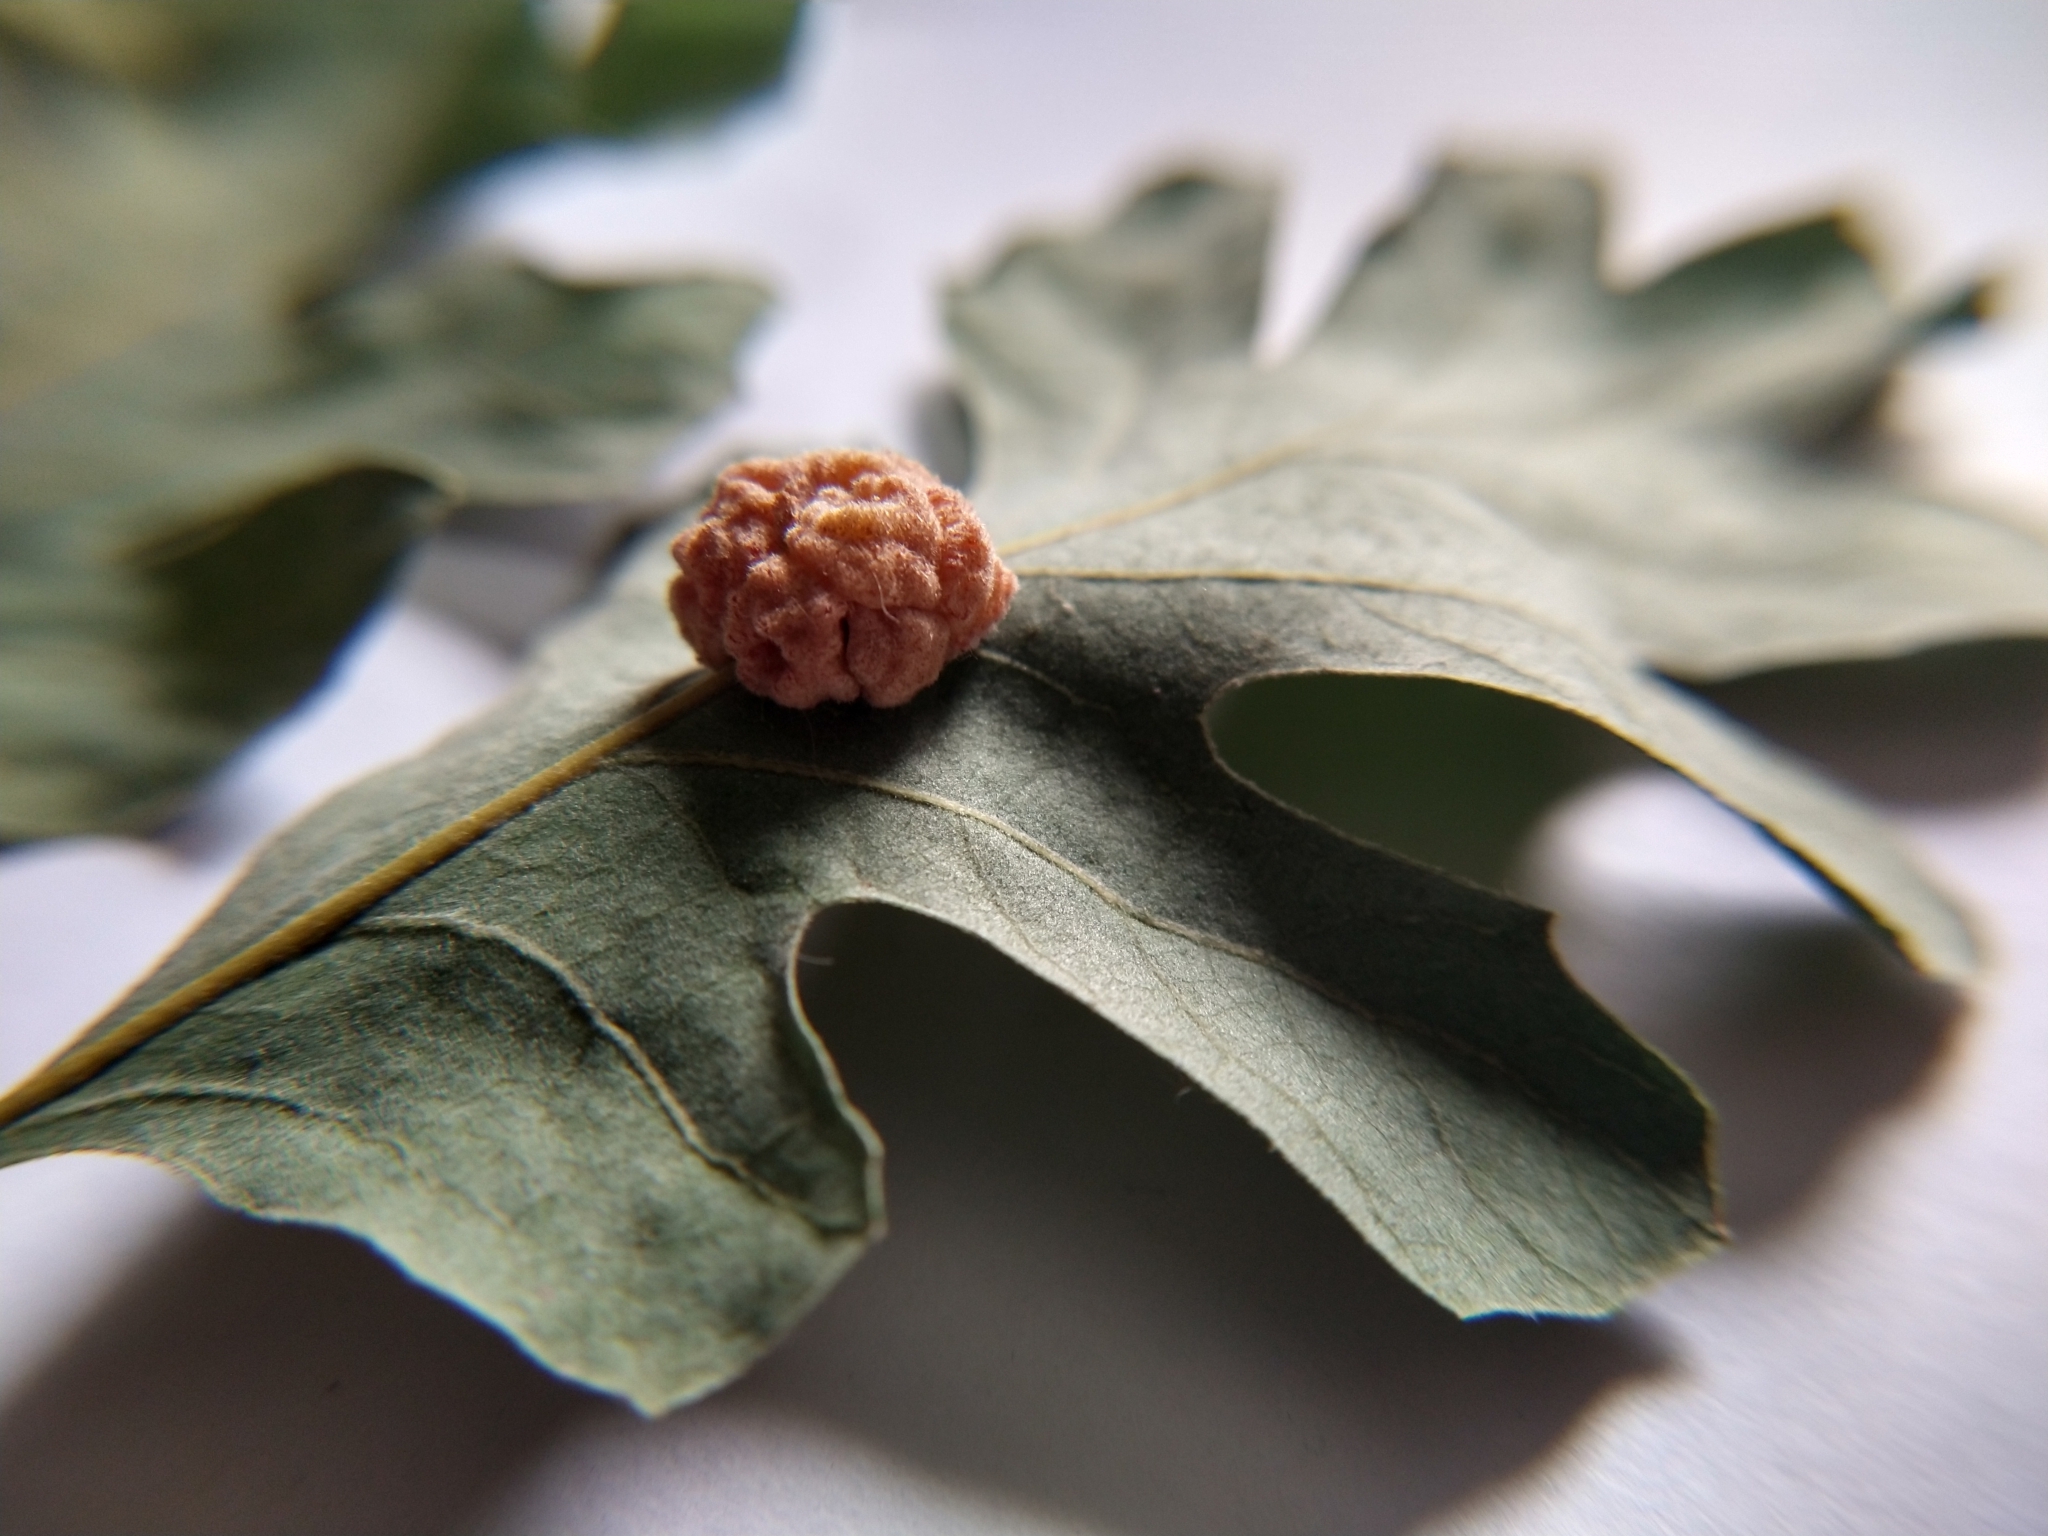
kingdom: Animalia
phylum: Arthropoda
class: Insecta
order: Hymenoptera
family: Cynipidae
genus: Andricus
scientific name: Andricus
